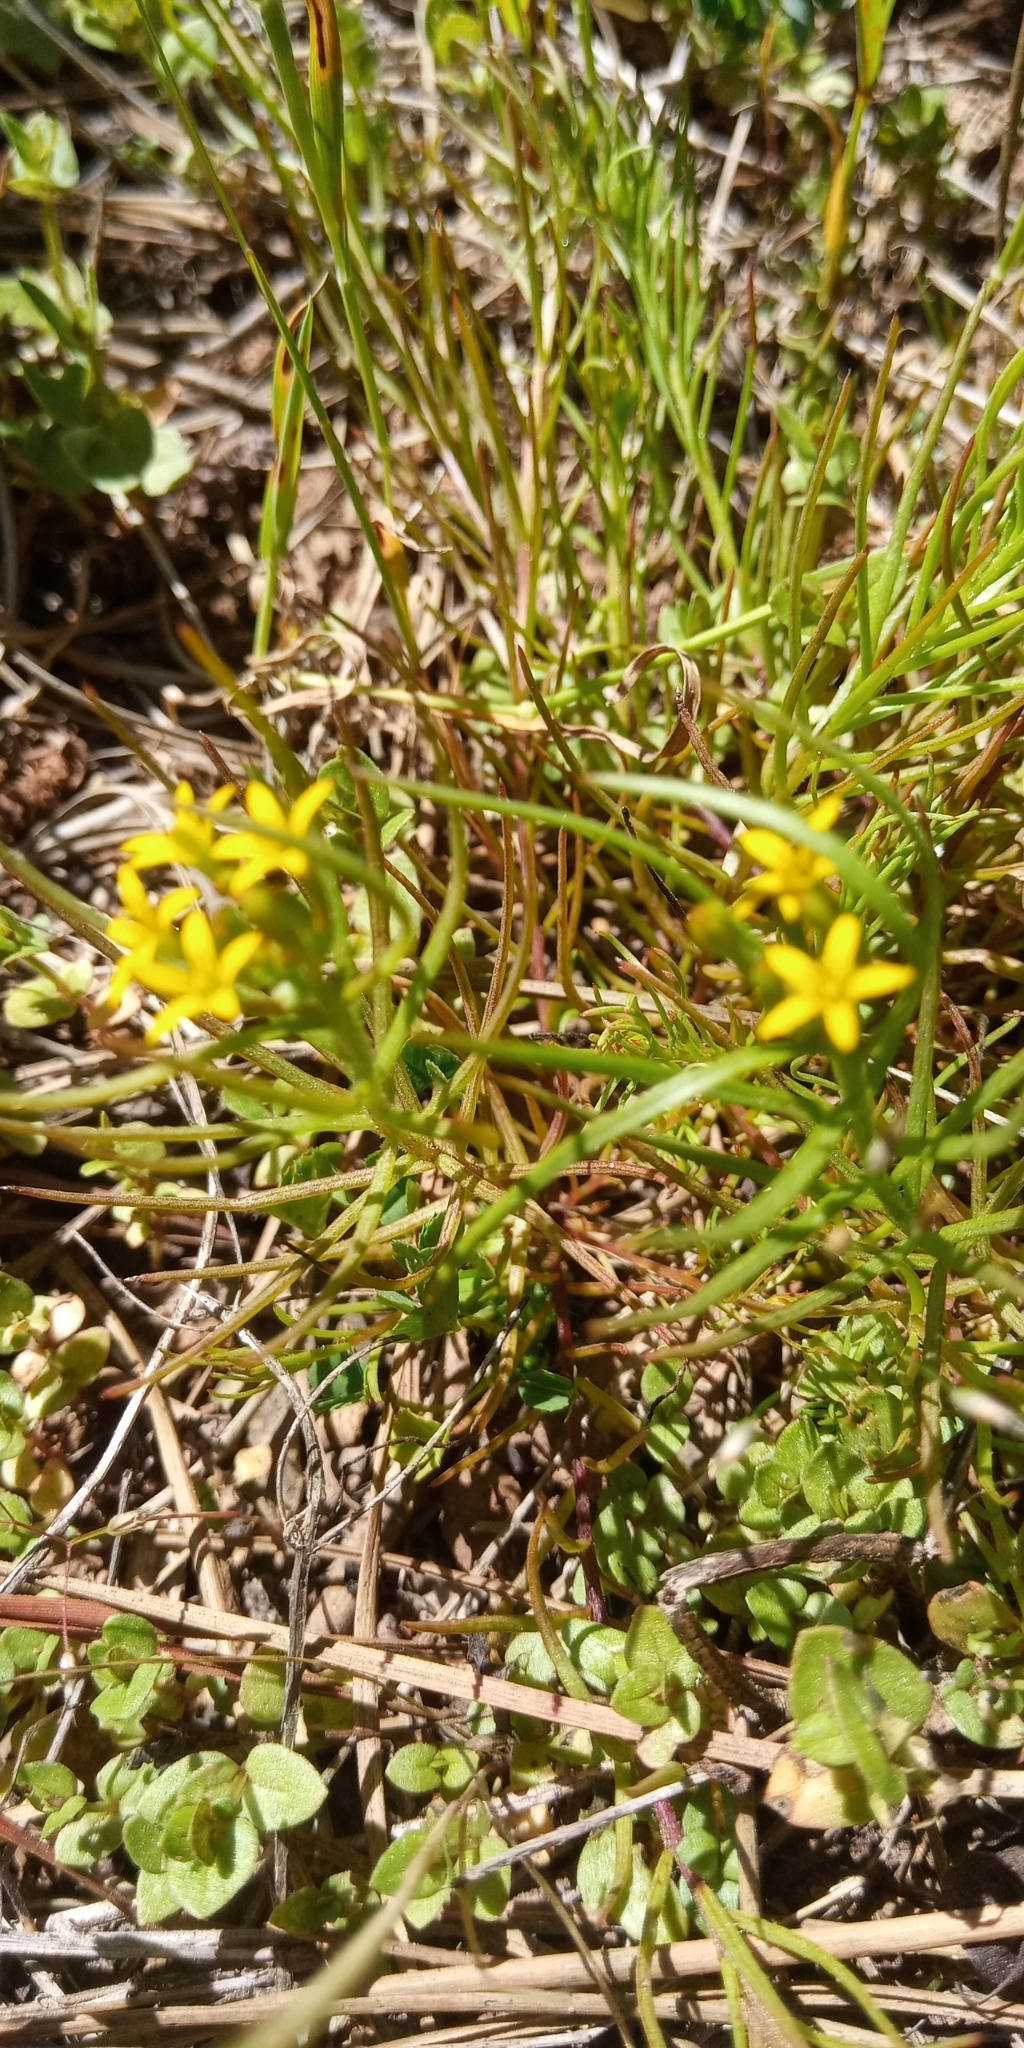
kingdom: Plantae
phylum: Tracheophyta
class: Magnoliopsida
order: Santalales
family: Schoepfiaceae
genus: Quinchamalium
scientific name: Quinchamalium chilense
